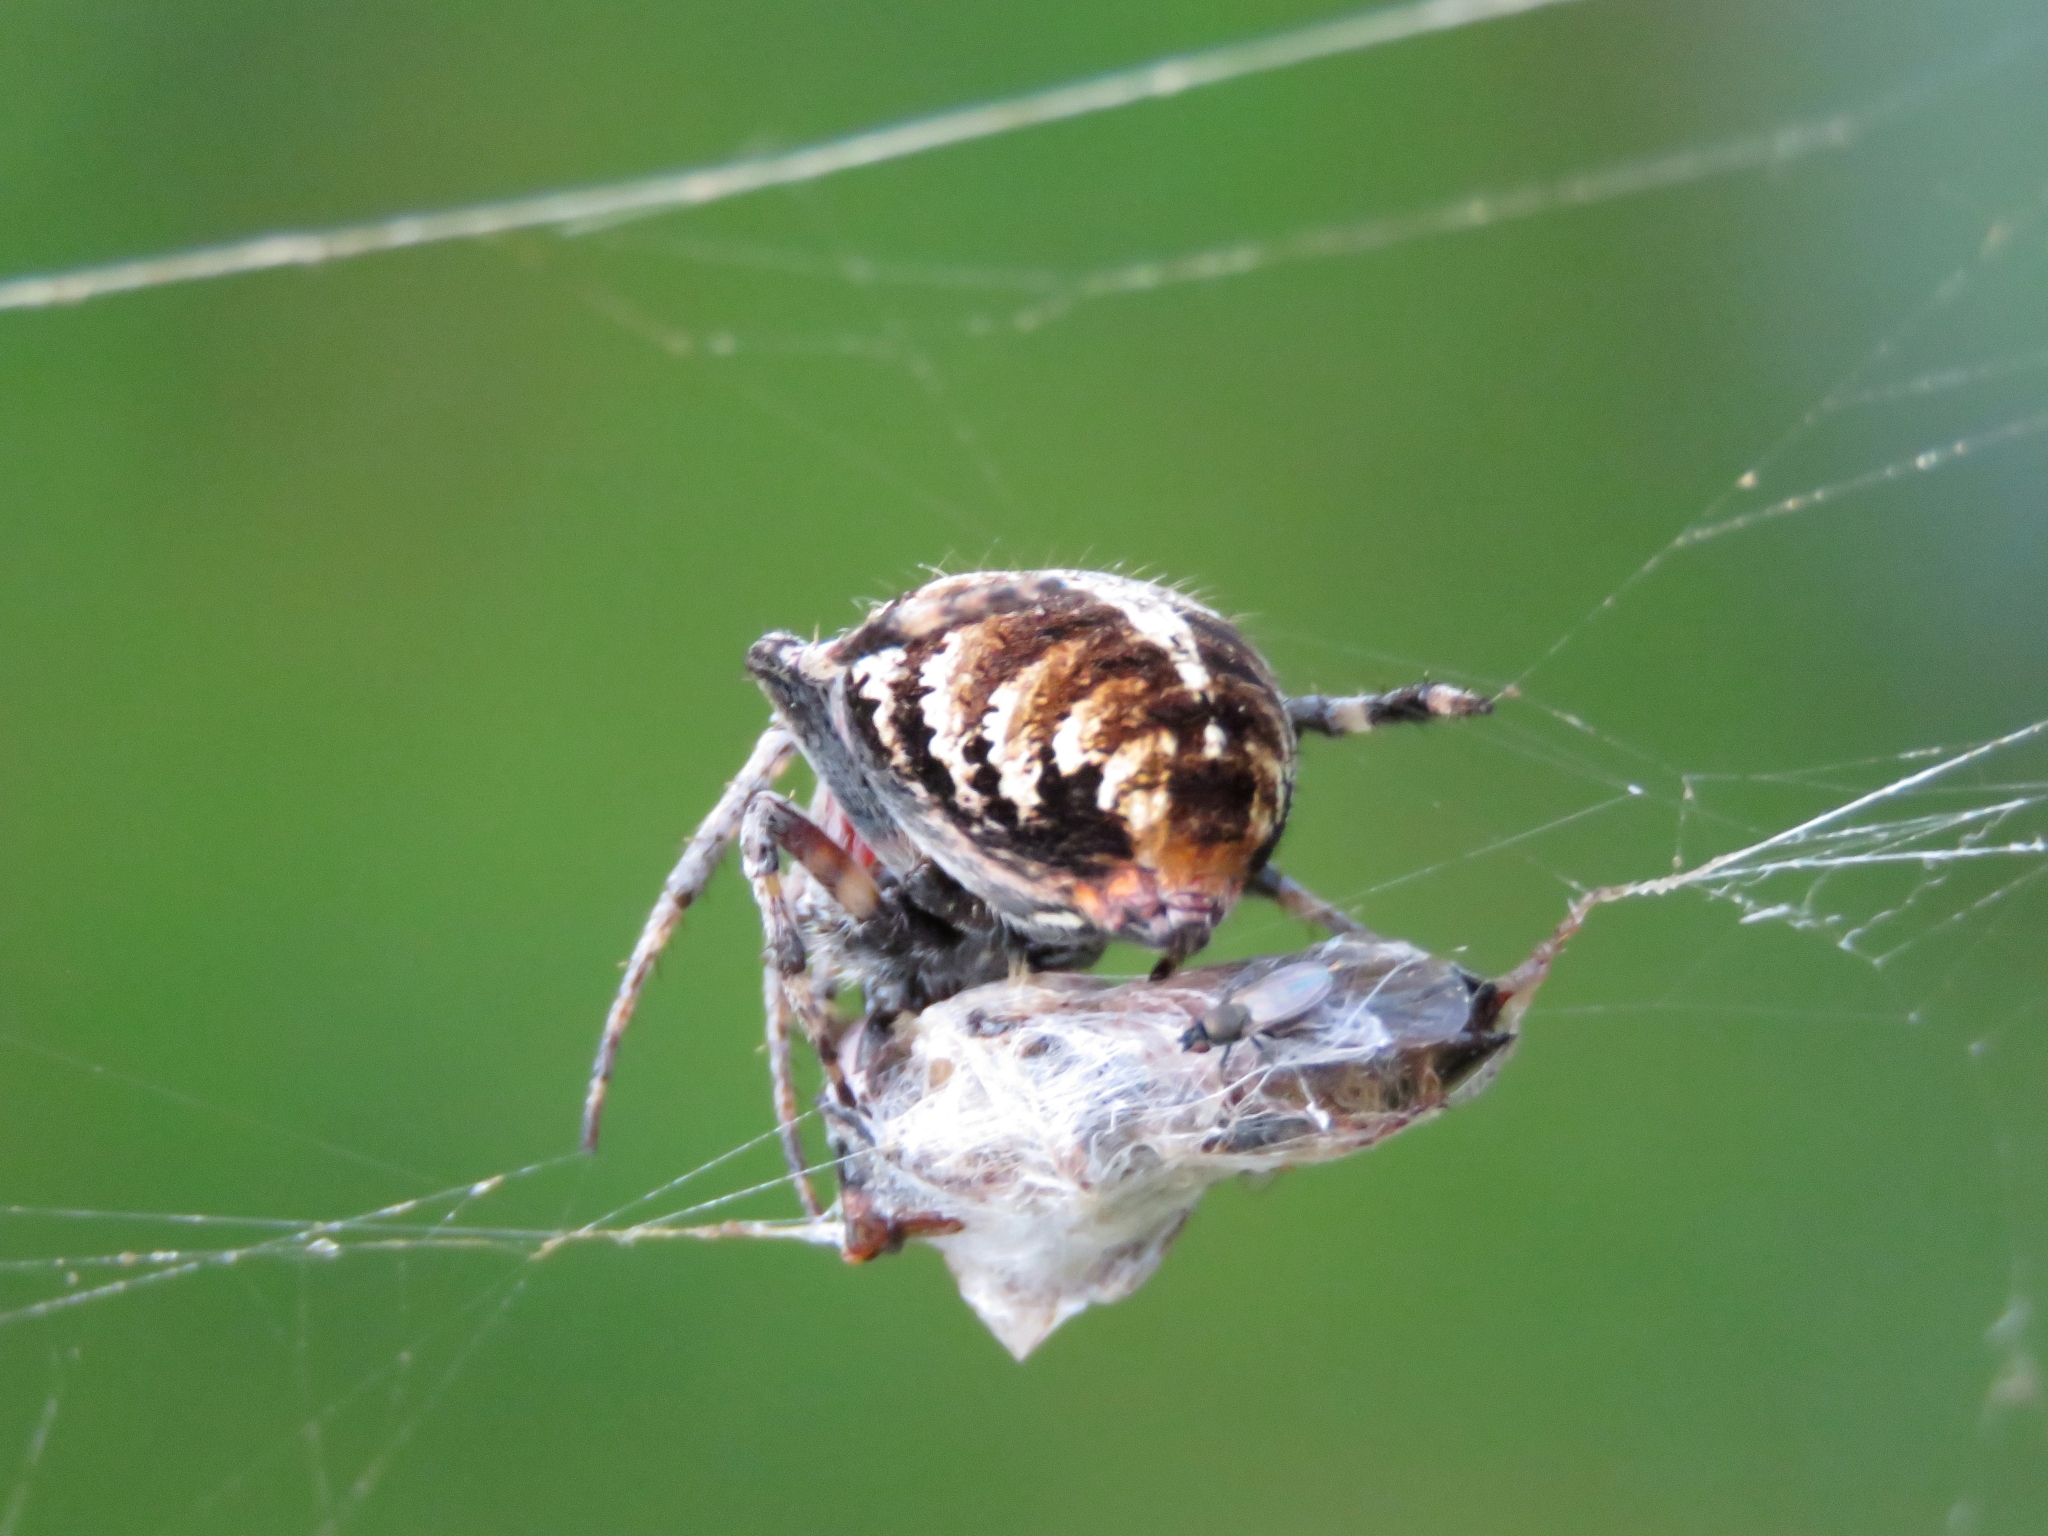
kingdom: Animalia
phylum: Arthropoda
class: Arachnida
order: Araneae
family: Araneidae
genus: Agalenatea
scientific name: Agalenatea redii
